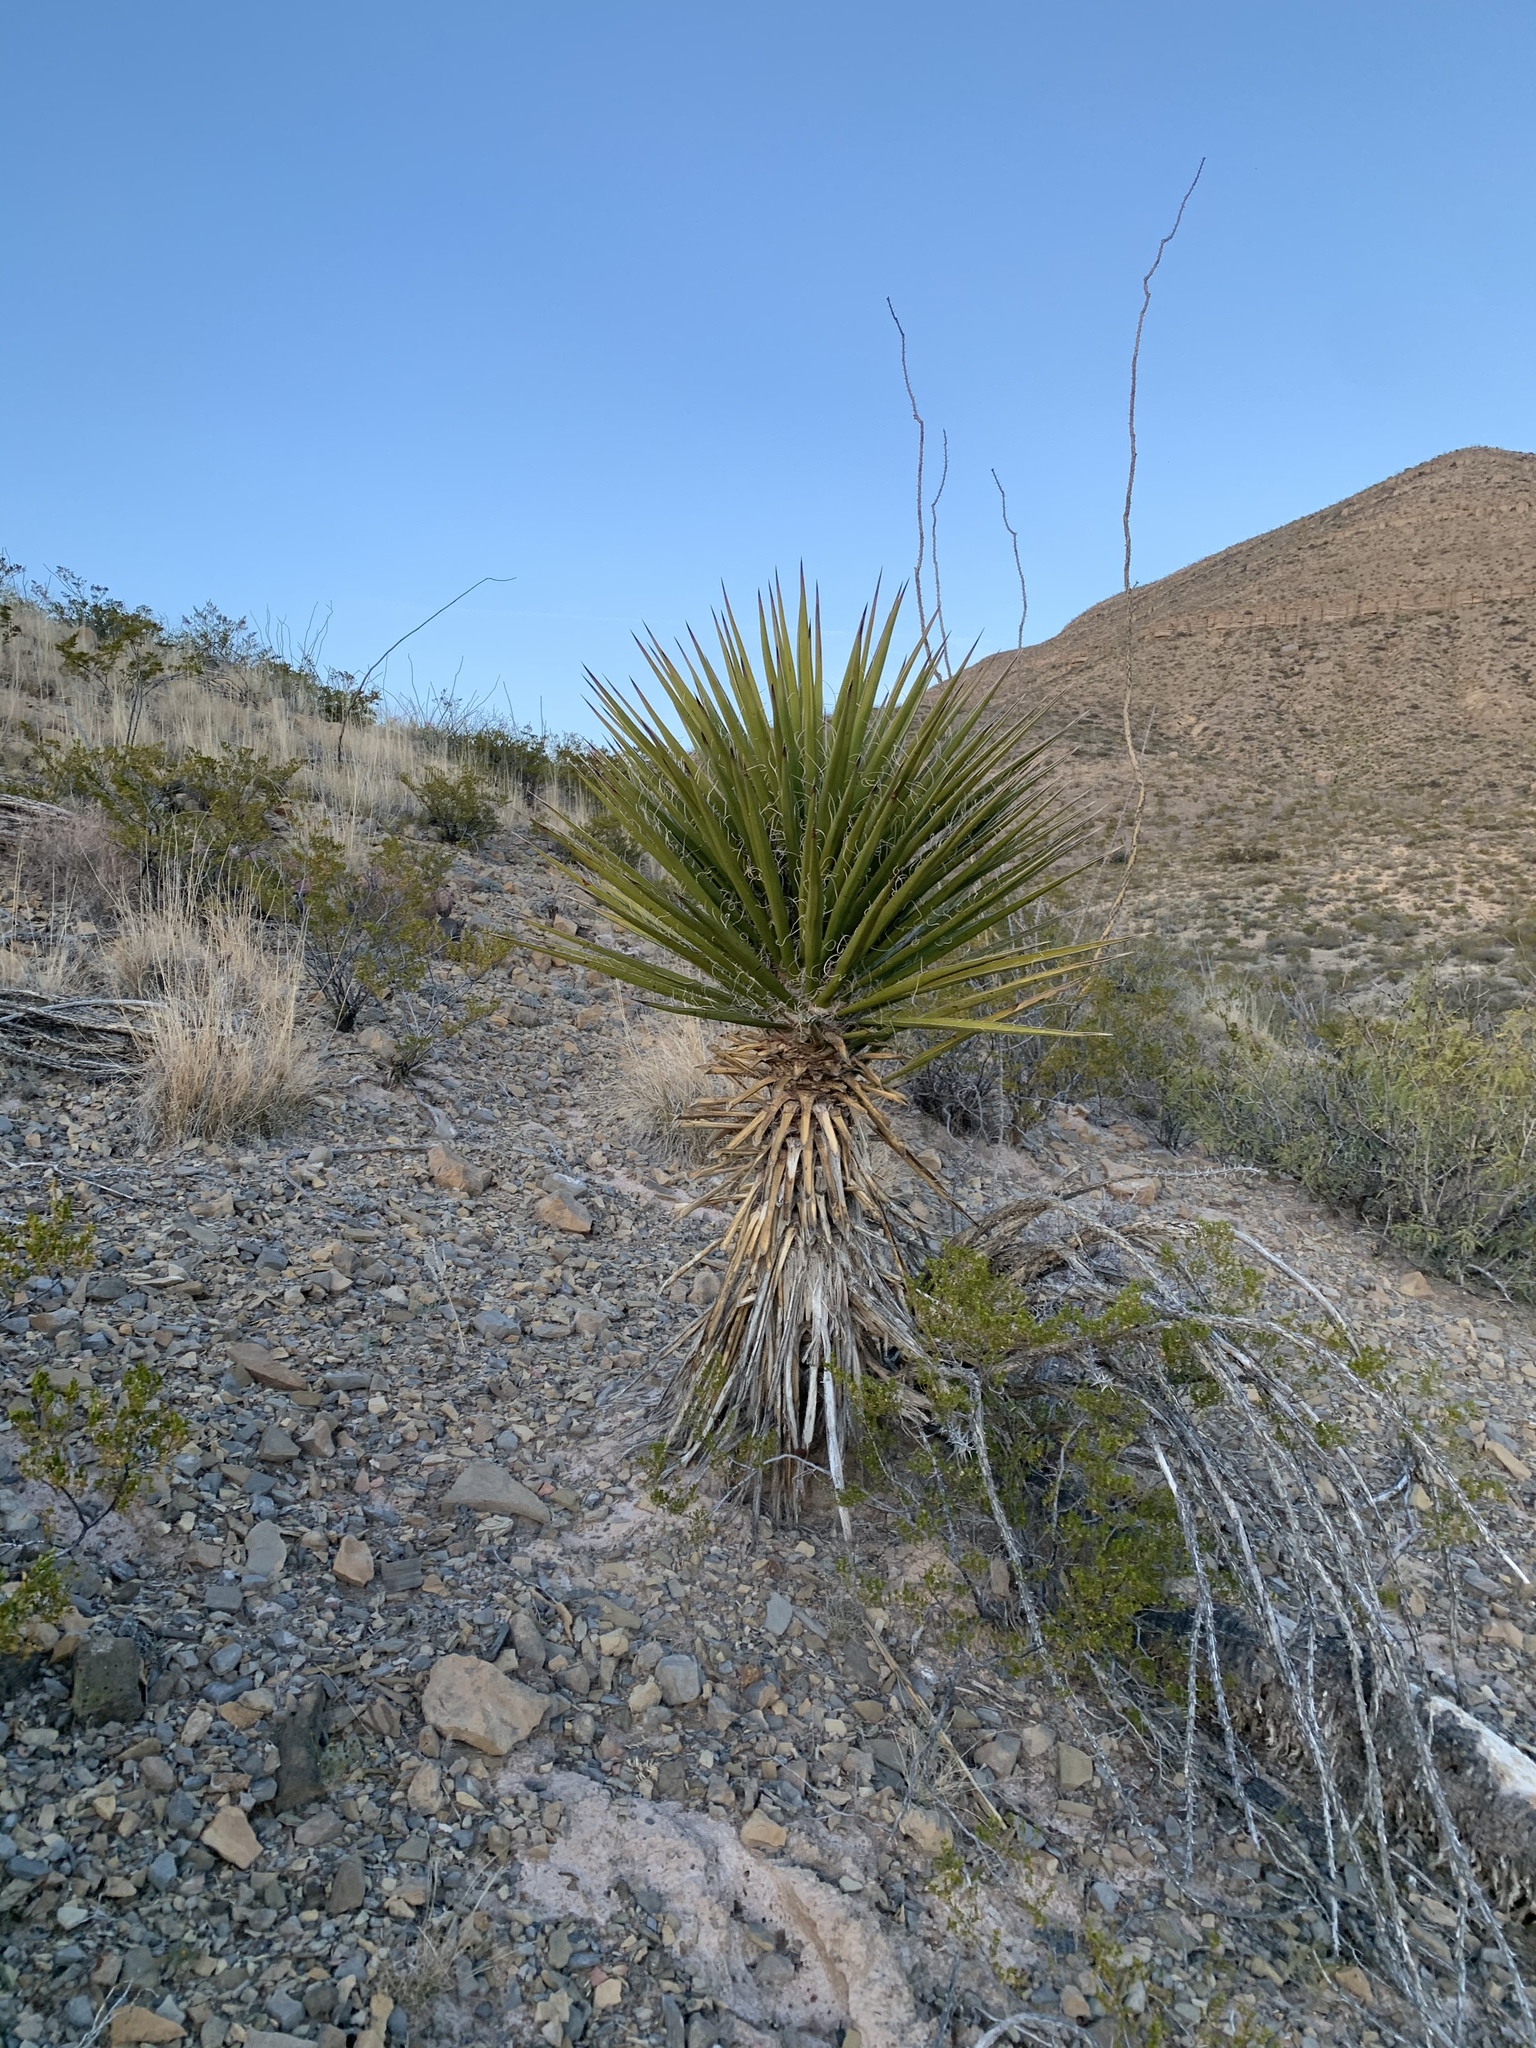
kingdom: Plantae
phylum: Tracheophyta
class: Liliopsida
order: Asparagales
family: Asparagaceae
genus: Yucca
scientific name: Yucca treculiana
